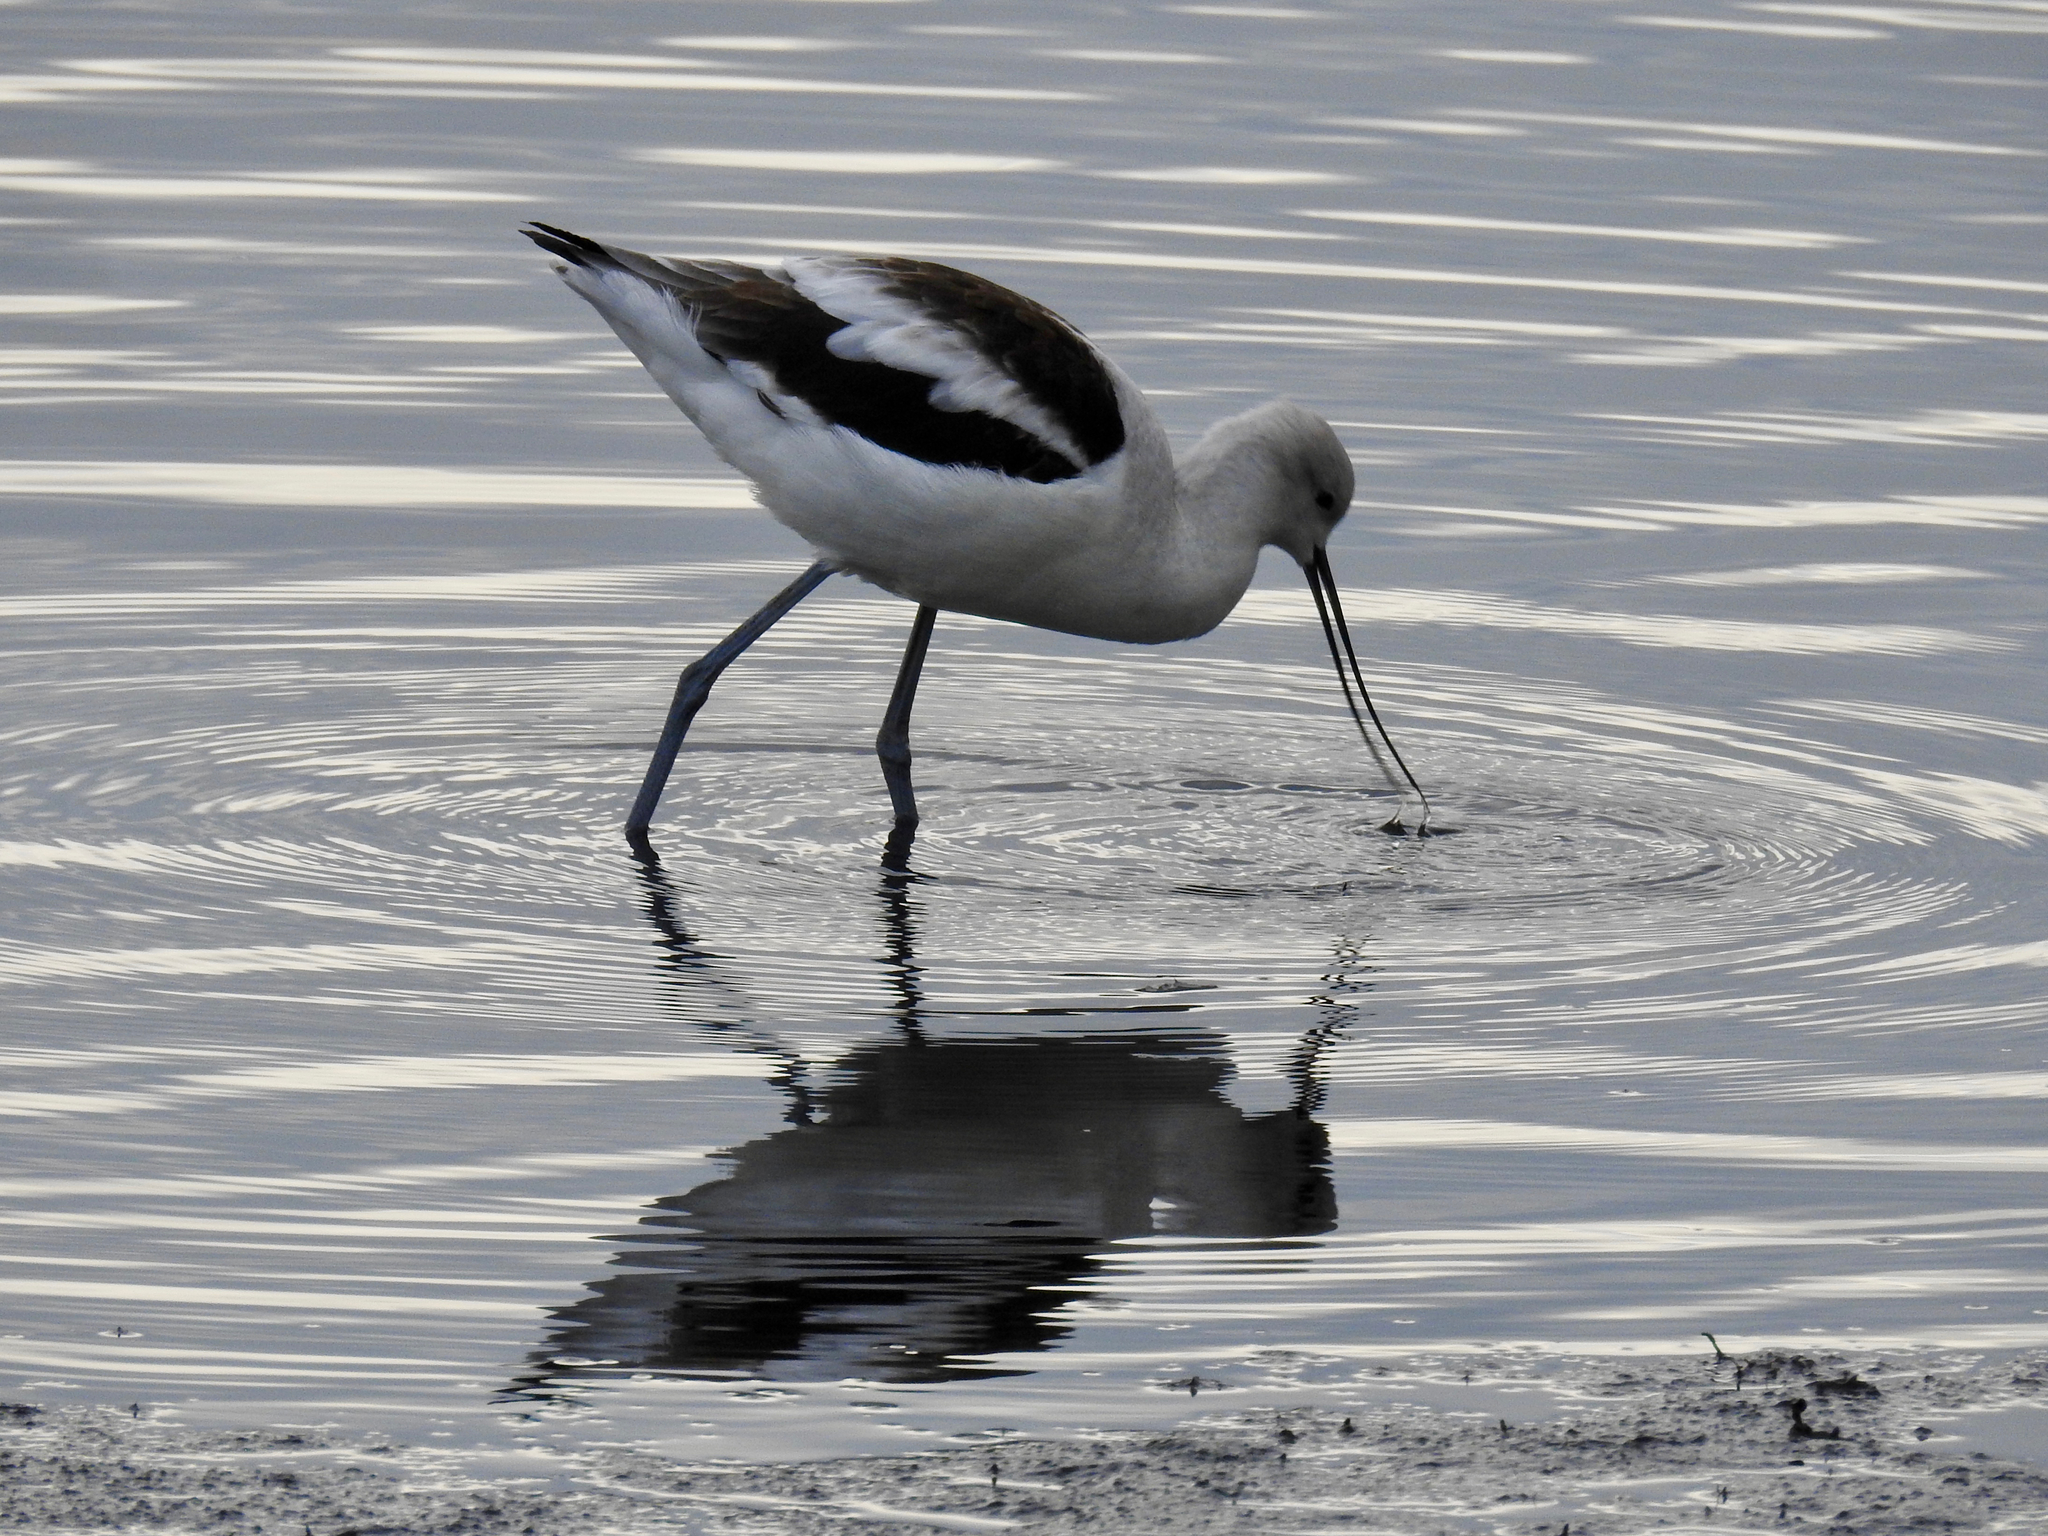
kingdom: Animalia
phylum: Chordata
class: Aves
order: Charadriiformes
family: Recurvirostridae
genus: Recurvirostra
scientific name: Recurvirostra americana
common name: American avocet
